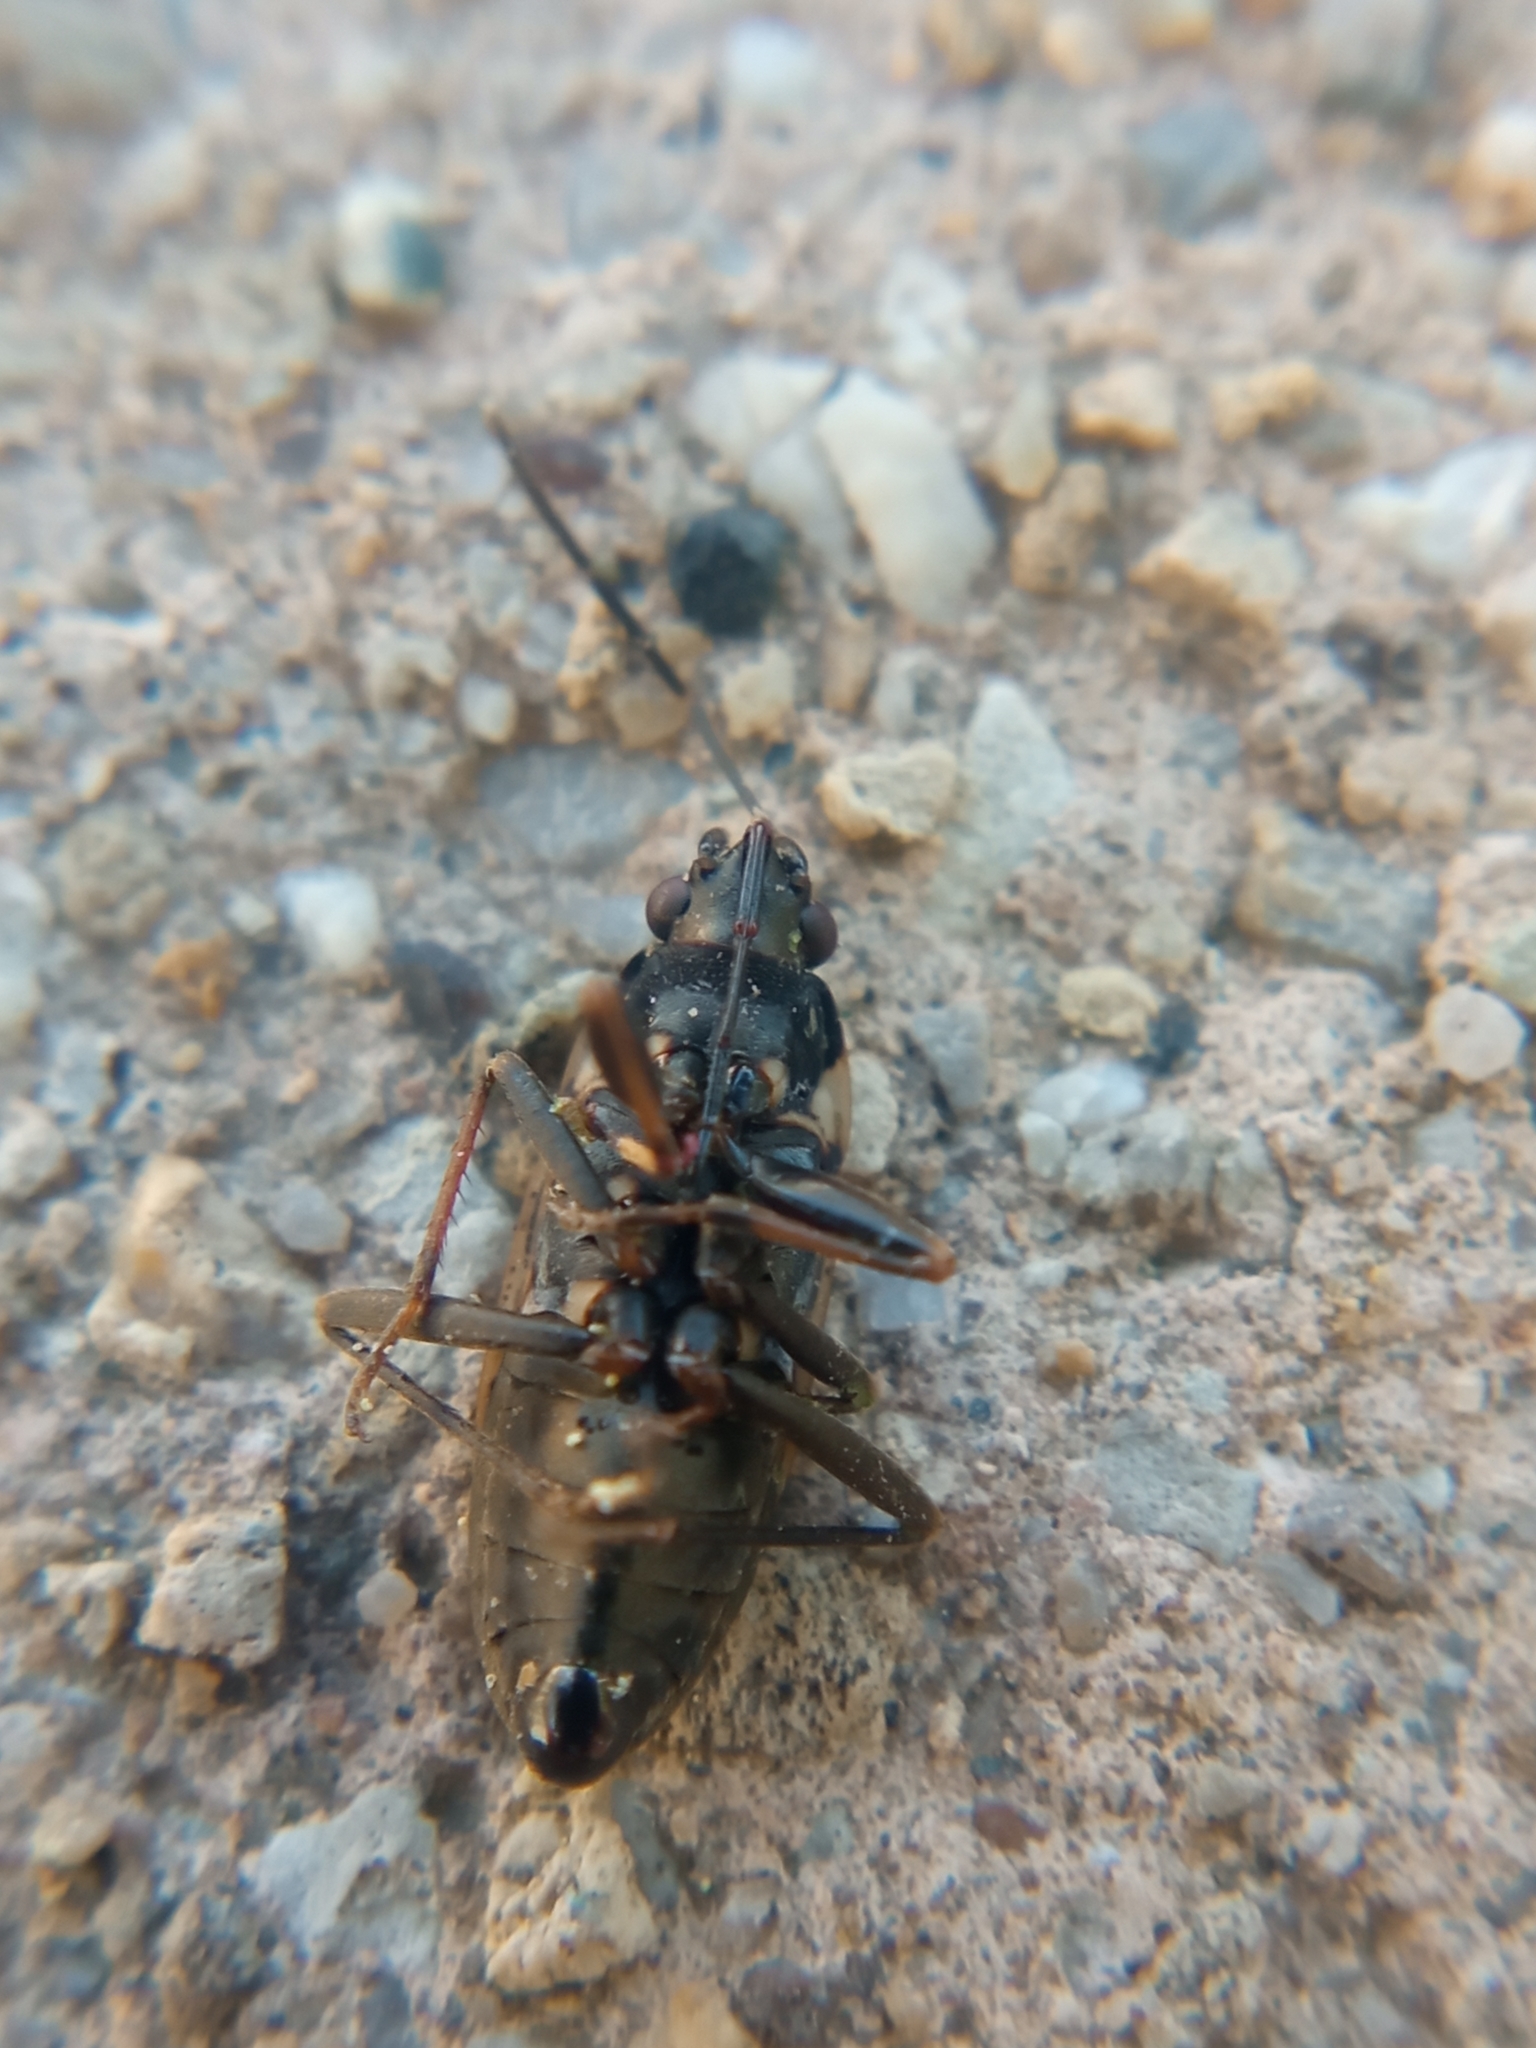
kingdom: Animalia
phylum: Arthropoda
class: Insecta
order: Hemiptera
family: Rhyparochromidae
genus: Rhyparochromus
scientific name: Rhyparochromus vulgaris
